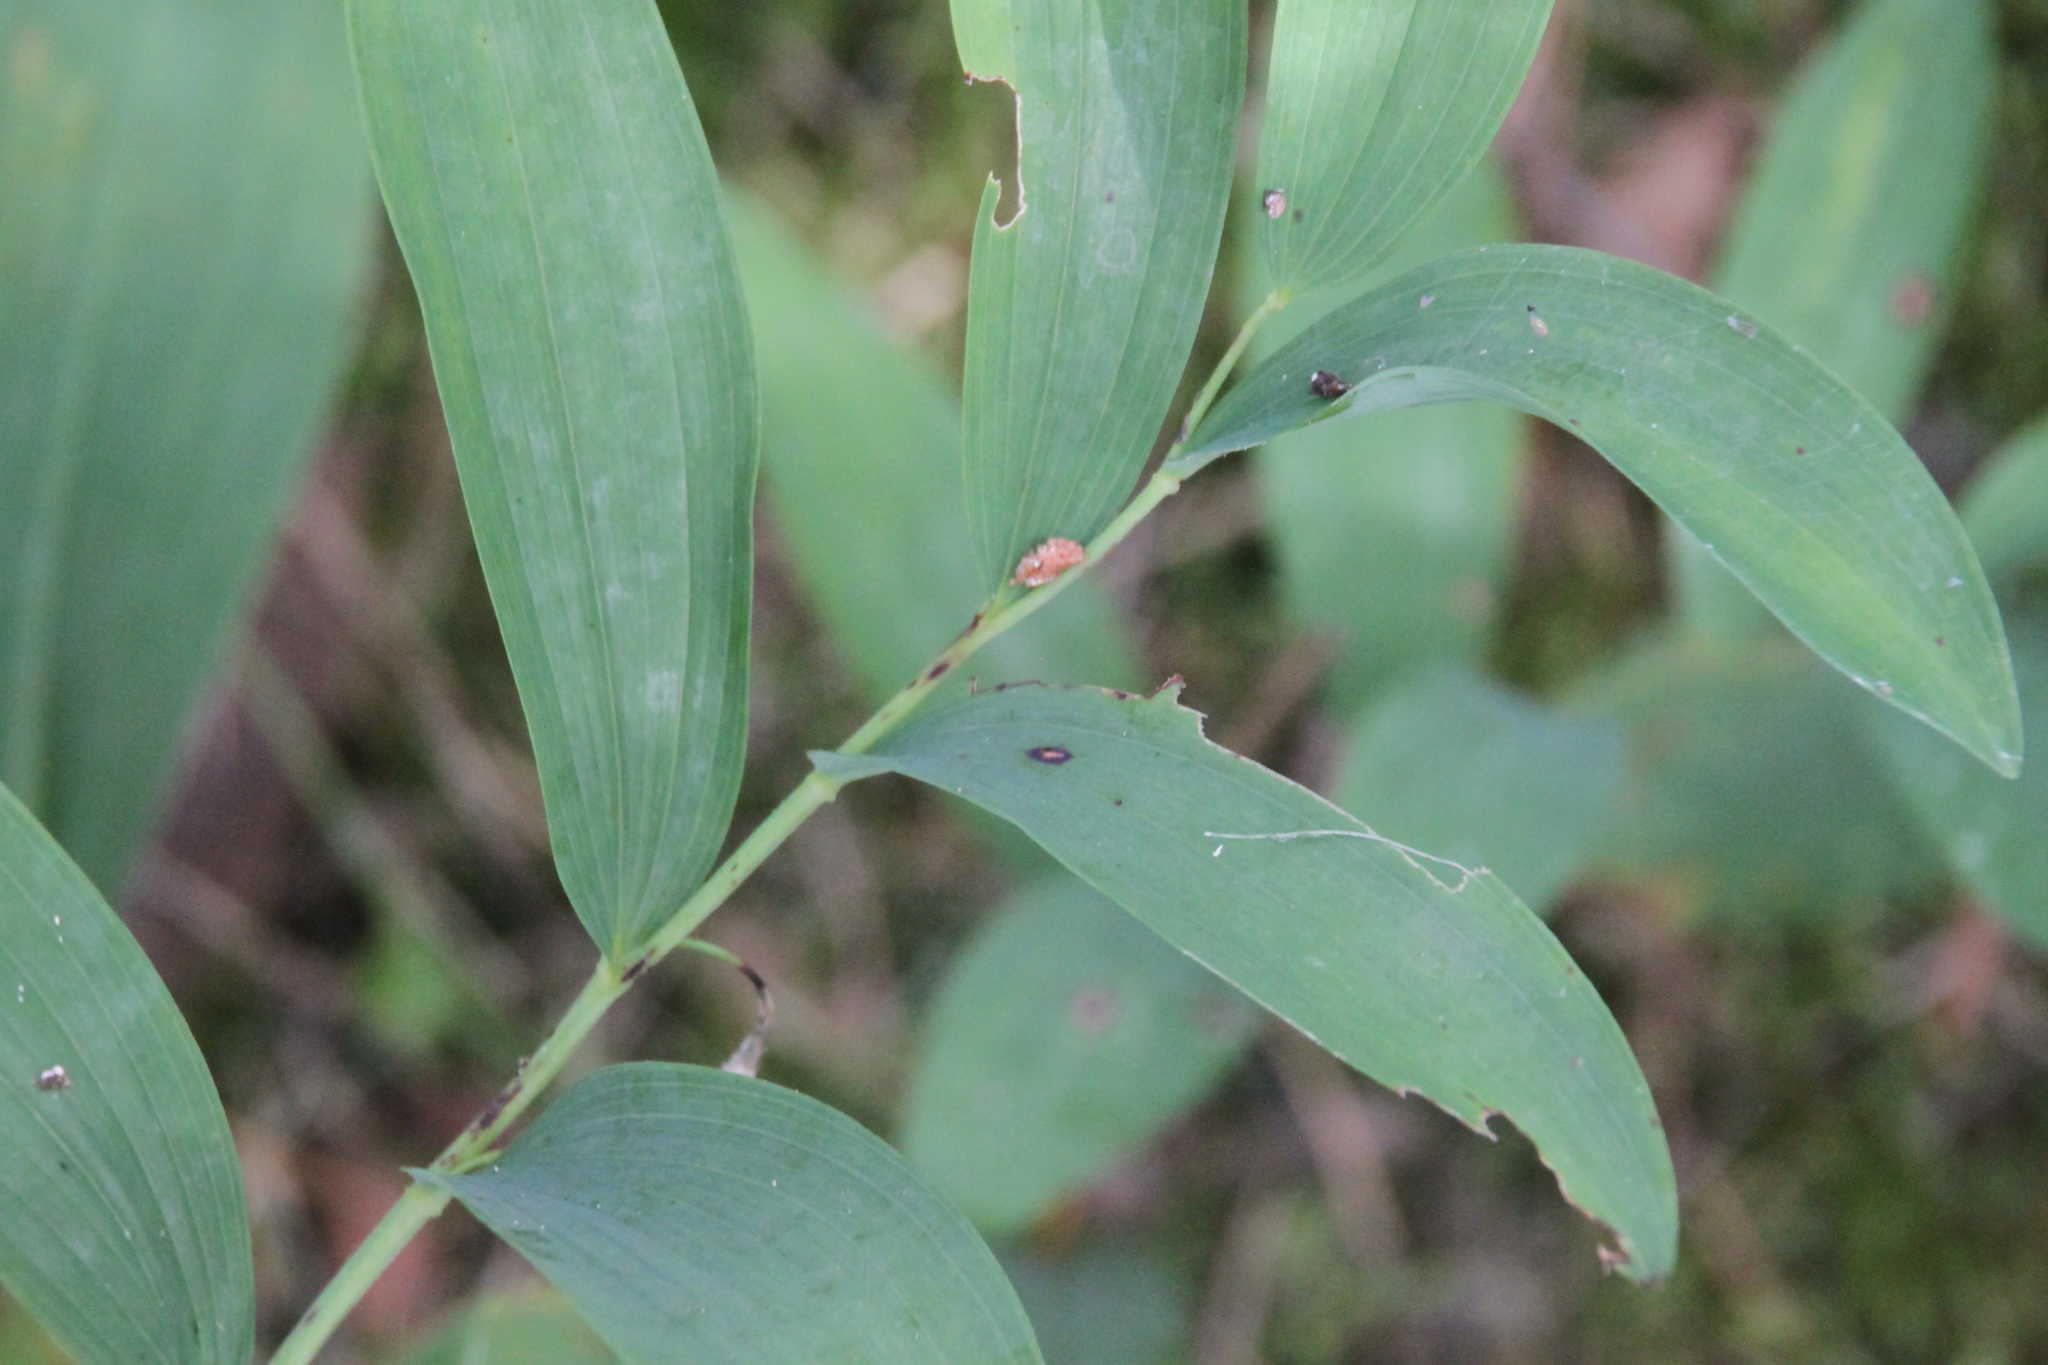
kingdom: Plantae
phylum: Tracheophyta
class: Liliopsida
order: Asparagales
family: Asparagaceae
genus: Polygonatum
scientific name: Polygonatum odoratum
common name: Angular solomon's-seal
